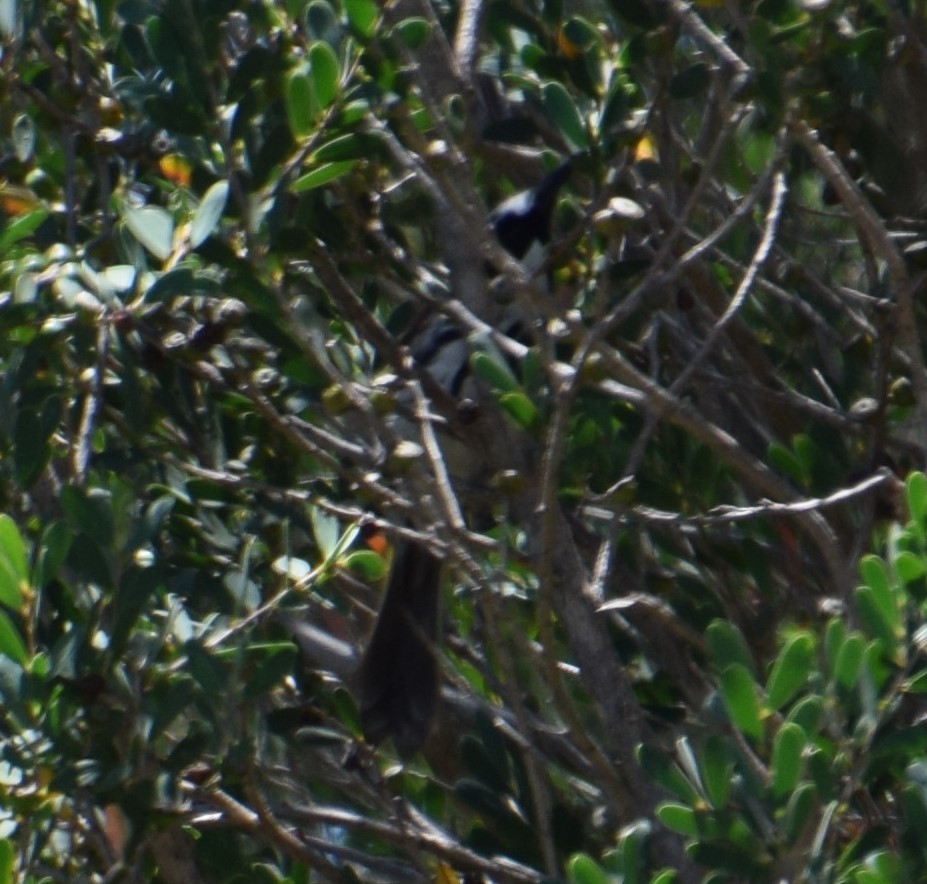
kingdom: Animalia
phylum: Chordata
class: Aves
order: Passeriformes
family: Meliphagidae
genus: Phylidonyris
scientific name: Phylidonyris niger
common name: White-cheeked honeyeater
